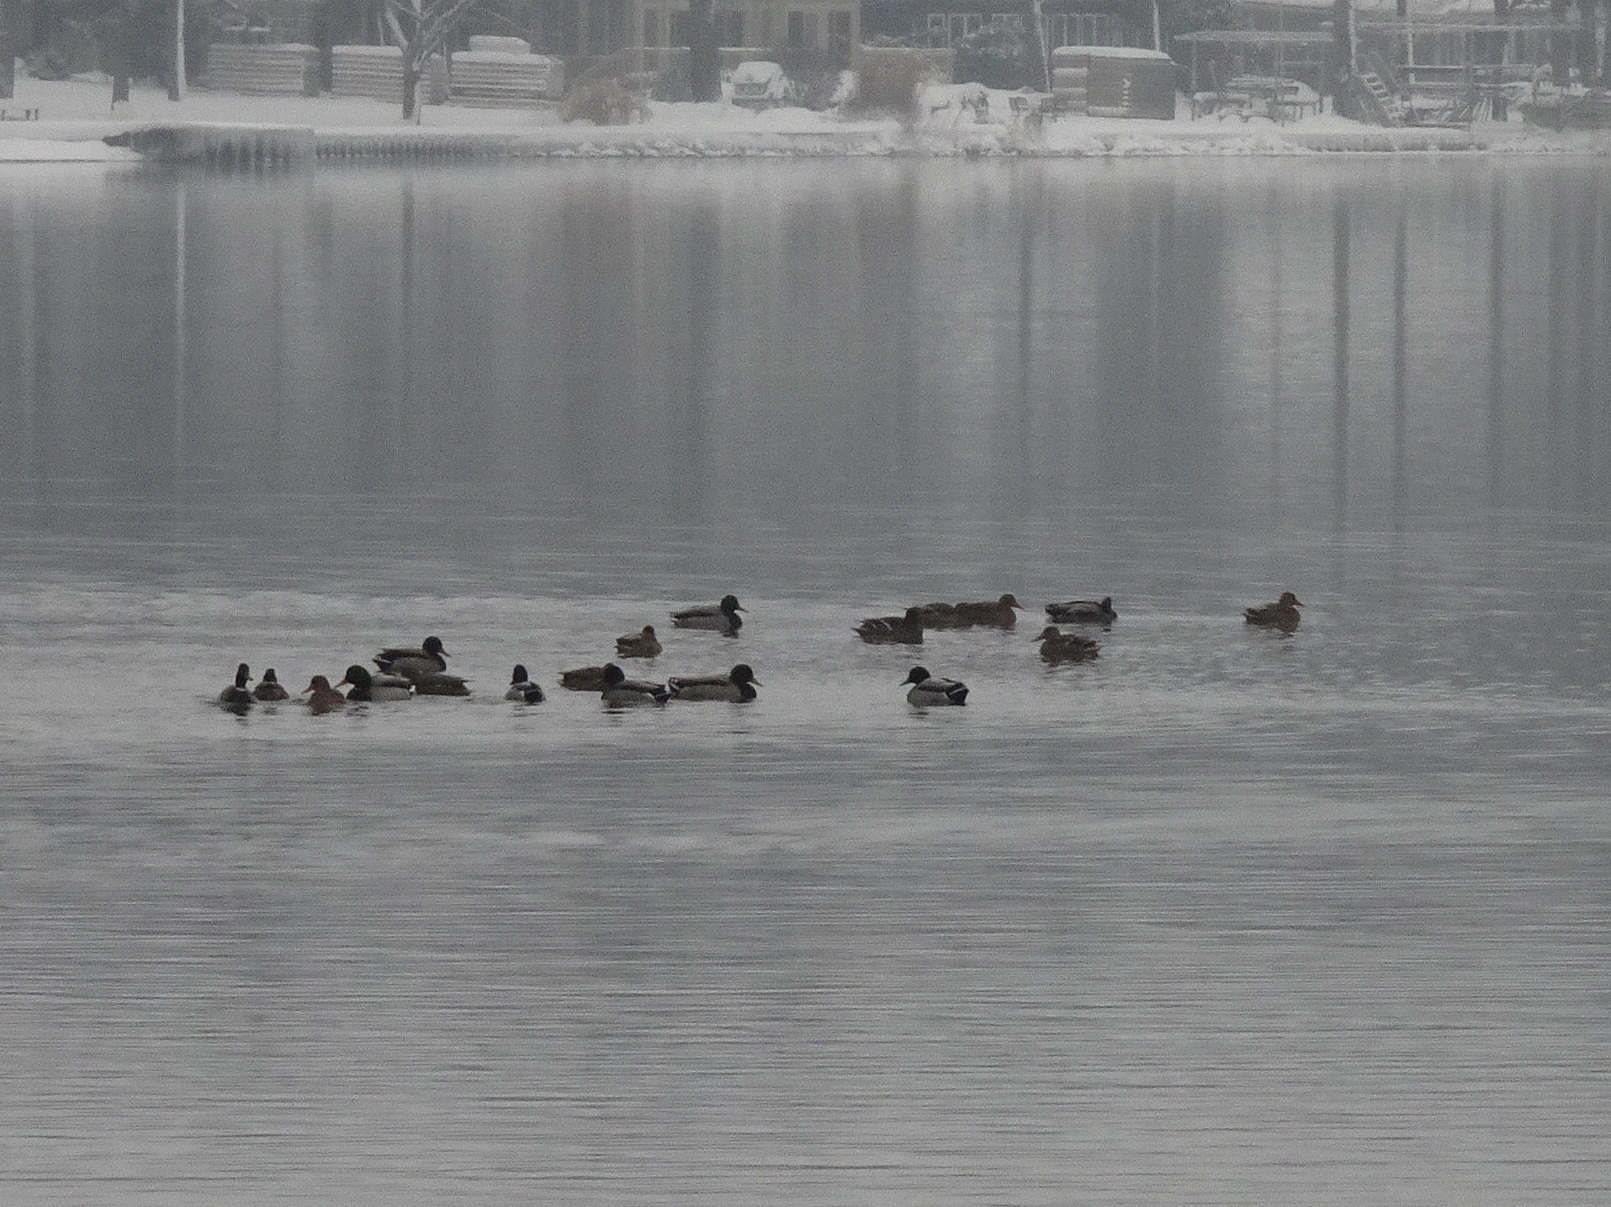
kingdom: Animalia
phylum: Chordata
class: Aves
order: Anseriformes
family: Anatidae
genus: Anas
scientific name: Anas platyrhynchos
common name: Mallard
